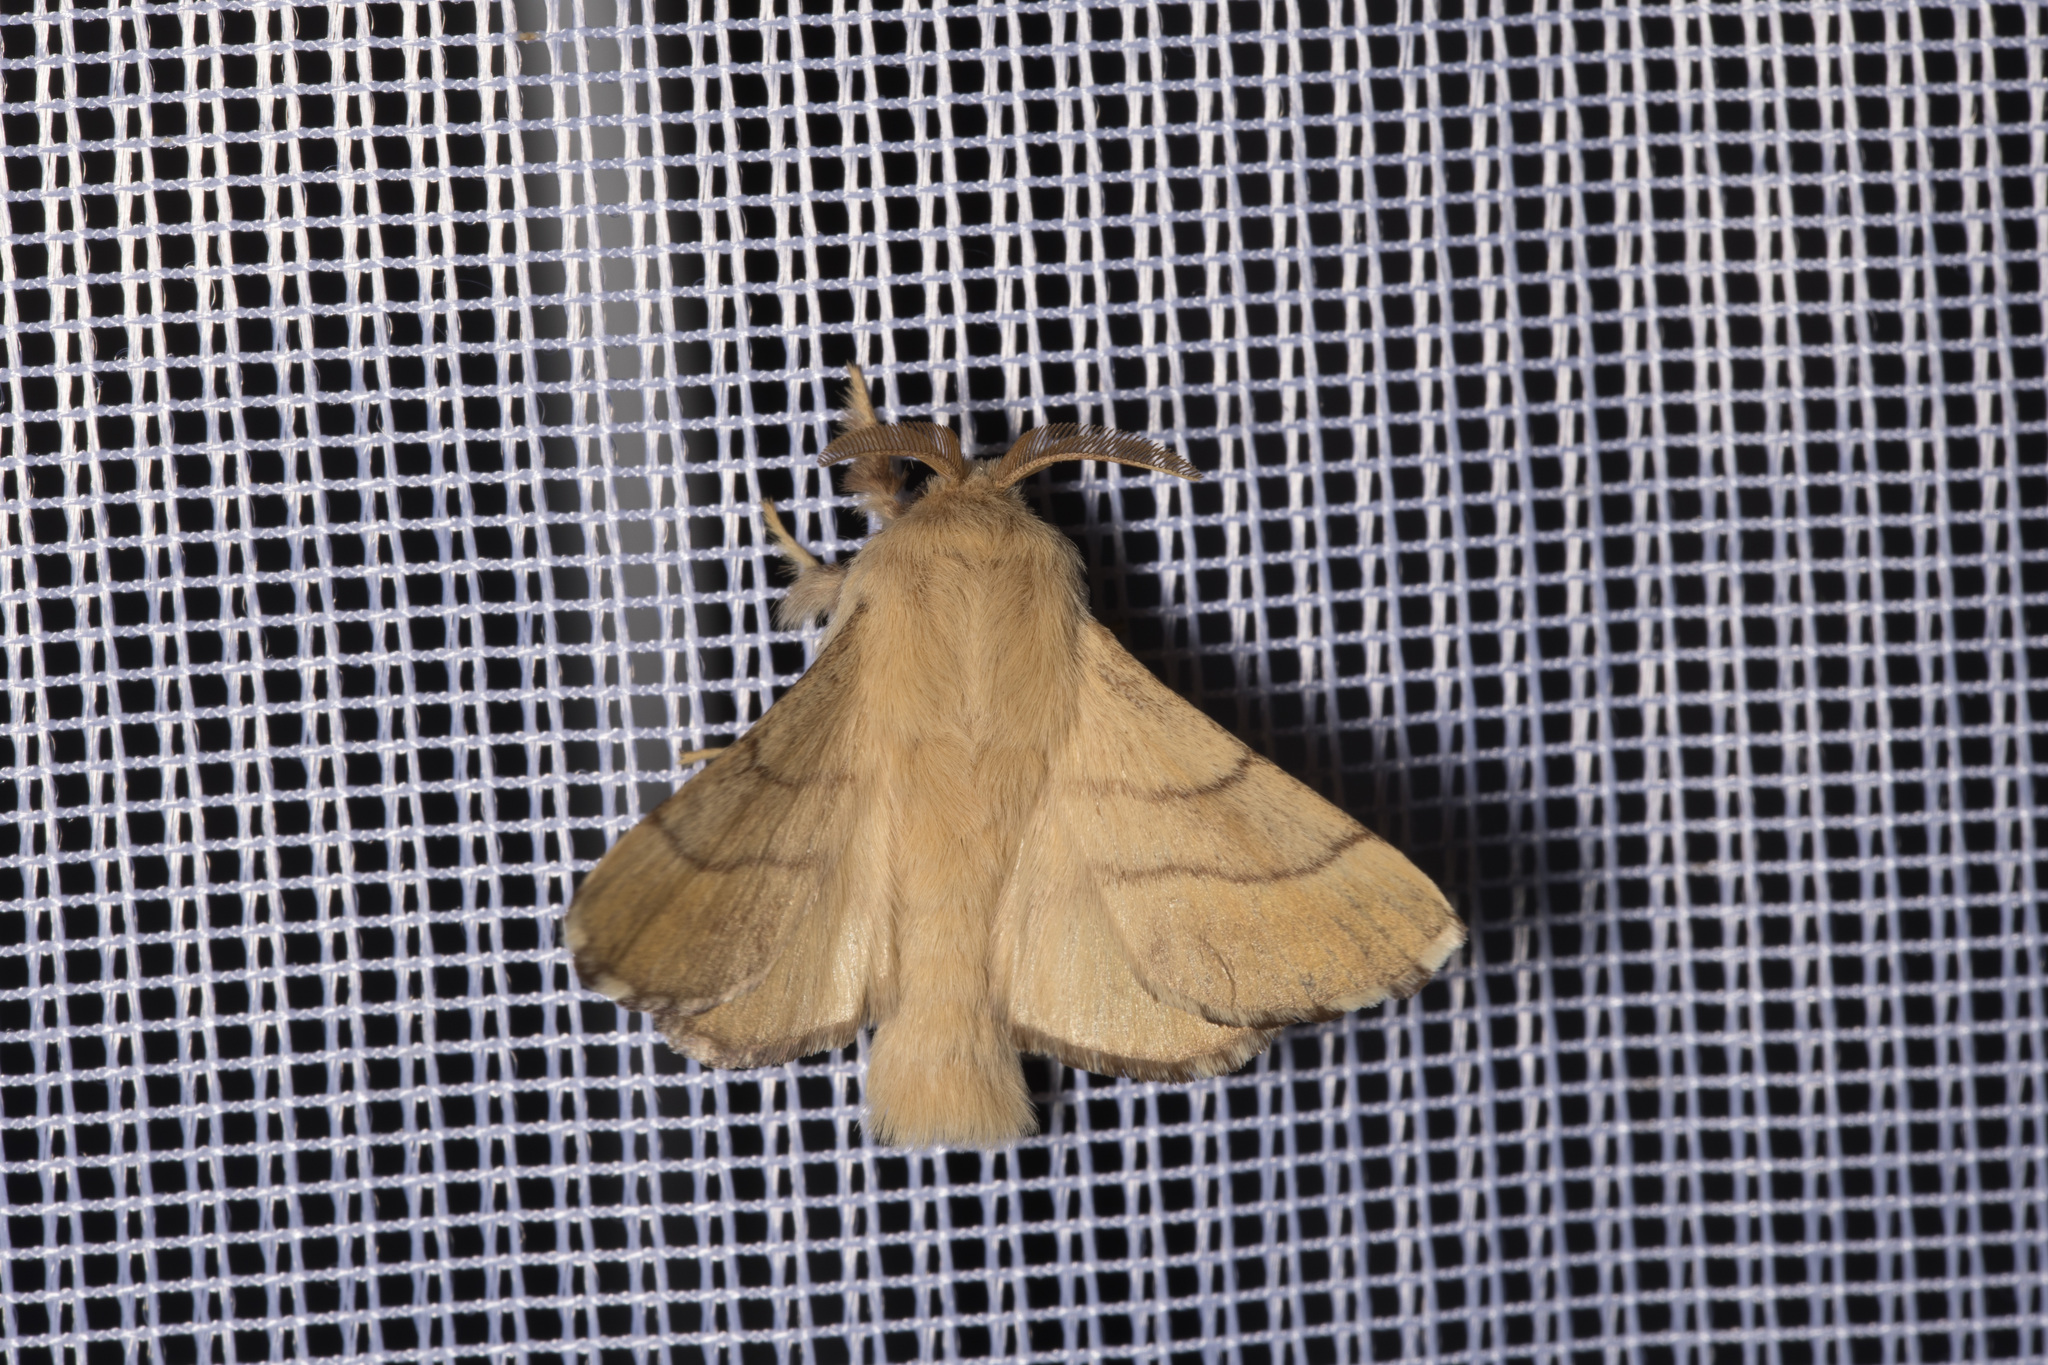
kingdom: Animalia
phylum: Arthropoda
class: Insecta
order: Lepidoptera
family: Lasiocampidae
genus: Malacosoma
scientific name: Malacosoma neustria
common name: The lackey
